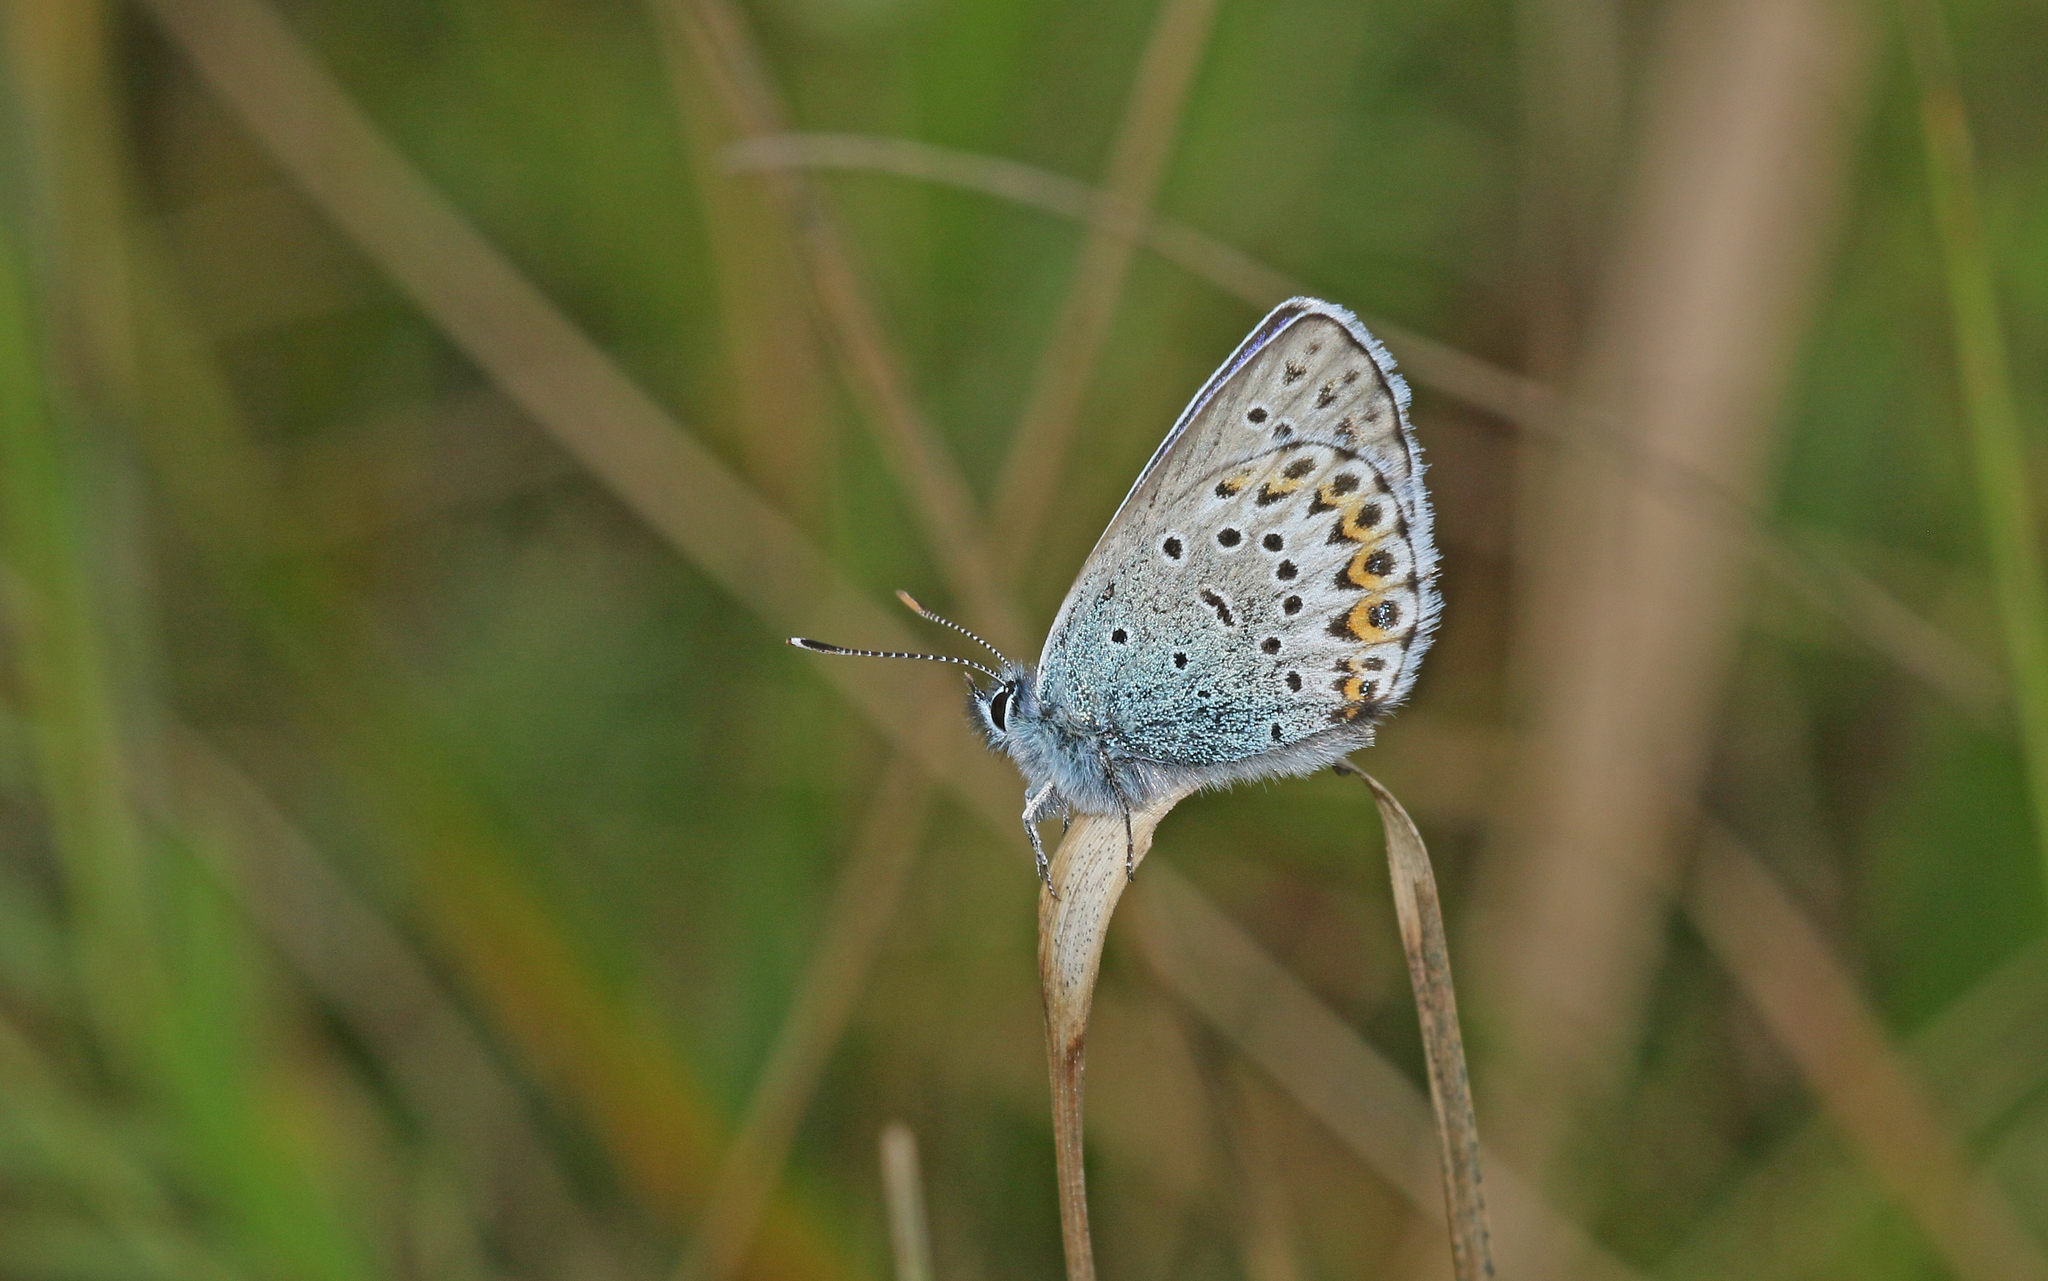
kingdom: Animalia
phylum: Arthropoda
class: Insecta
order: Lepidoptera
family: Lycaenidae
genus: Lycaeides
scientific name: Lycaeides idas
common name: Northern blue
